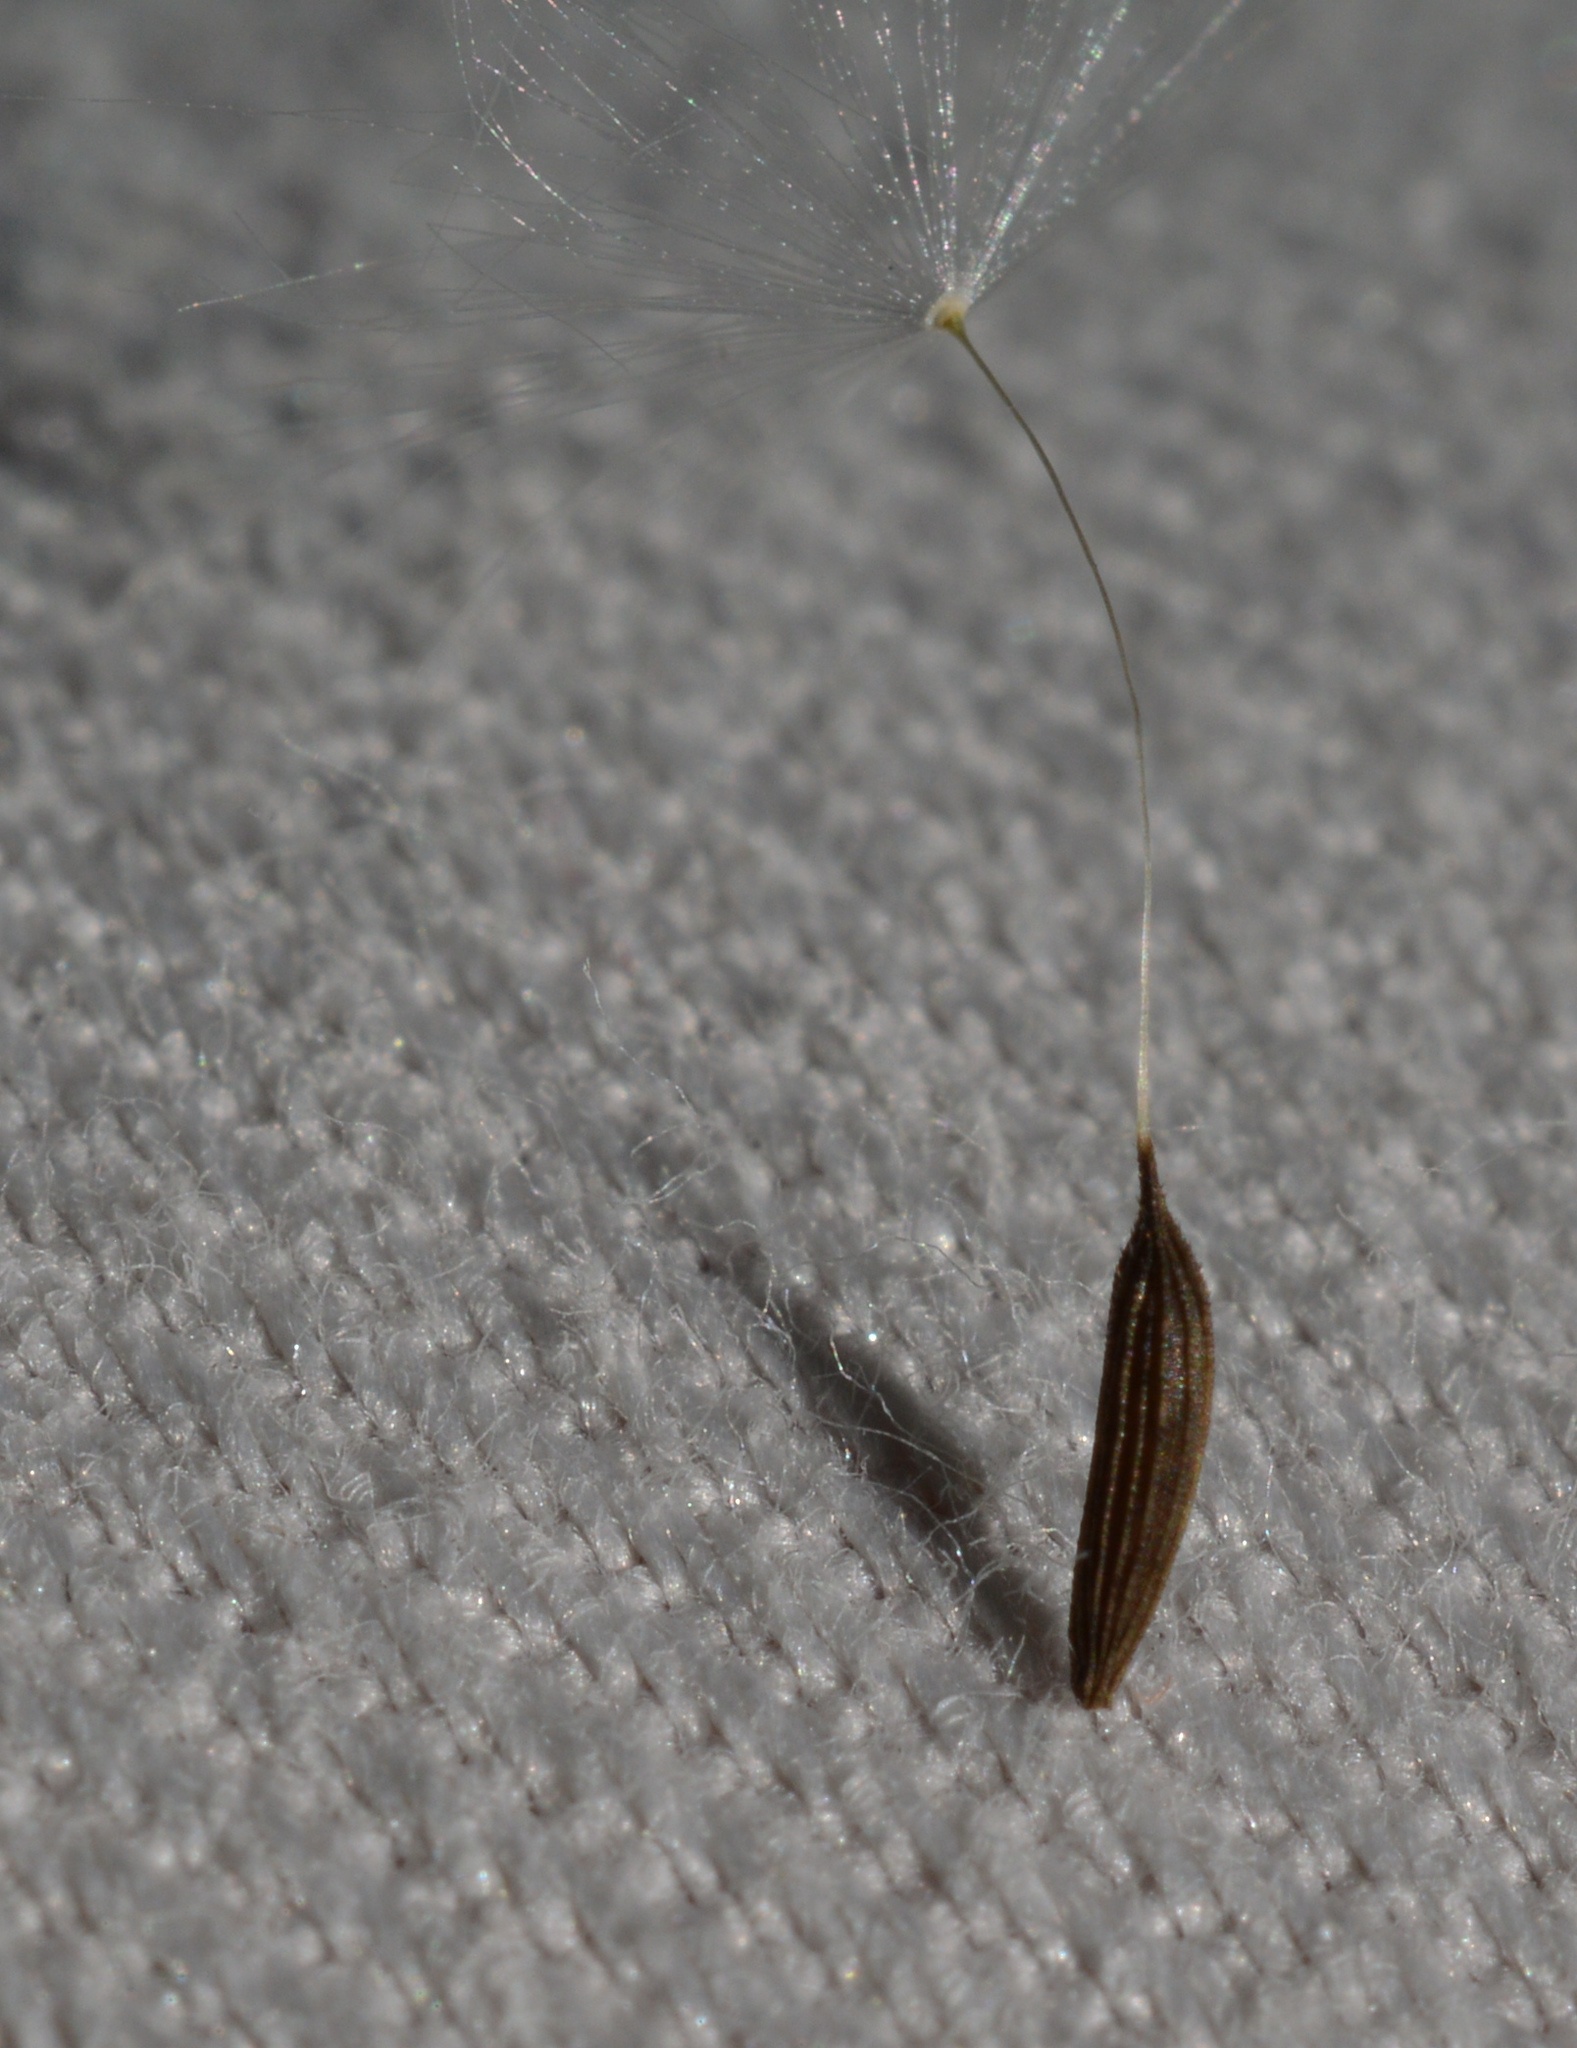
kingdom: Plantae
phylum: Tracheophyta
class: Magnoliopsida
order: Asterales
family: Asteraceae
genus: Lactuca
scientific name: Lactuca saligna
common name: Wild lettuce
